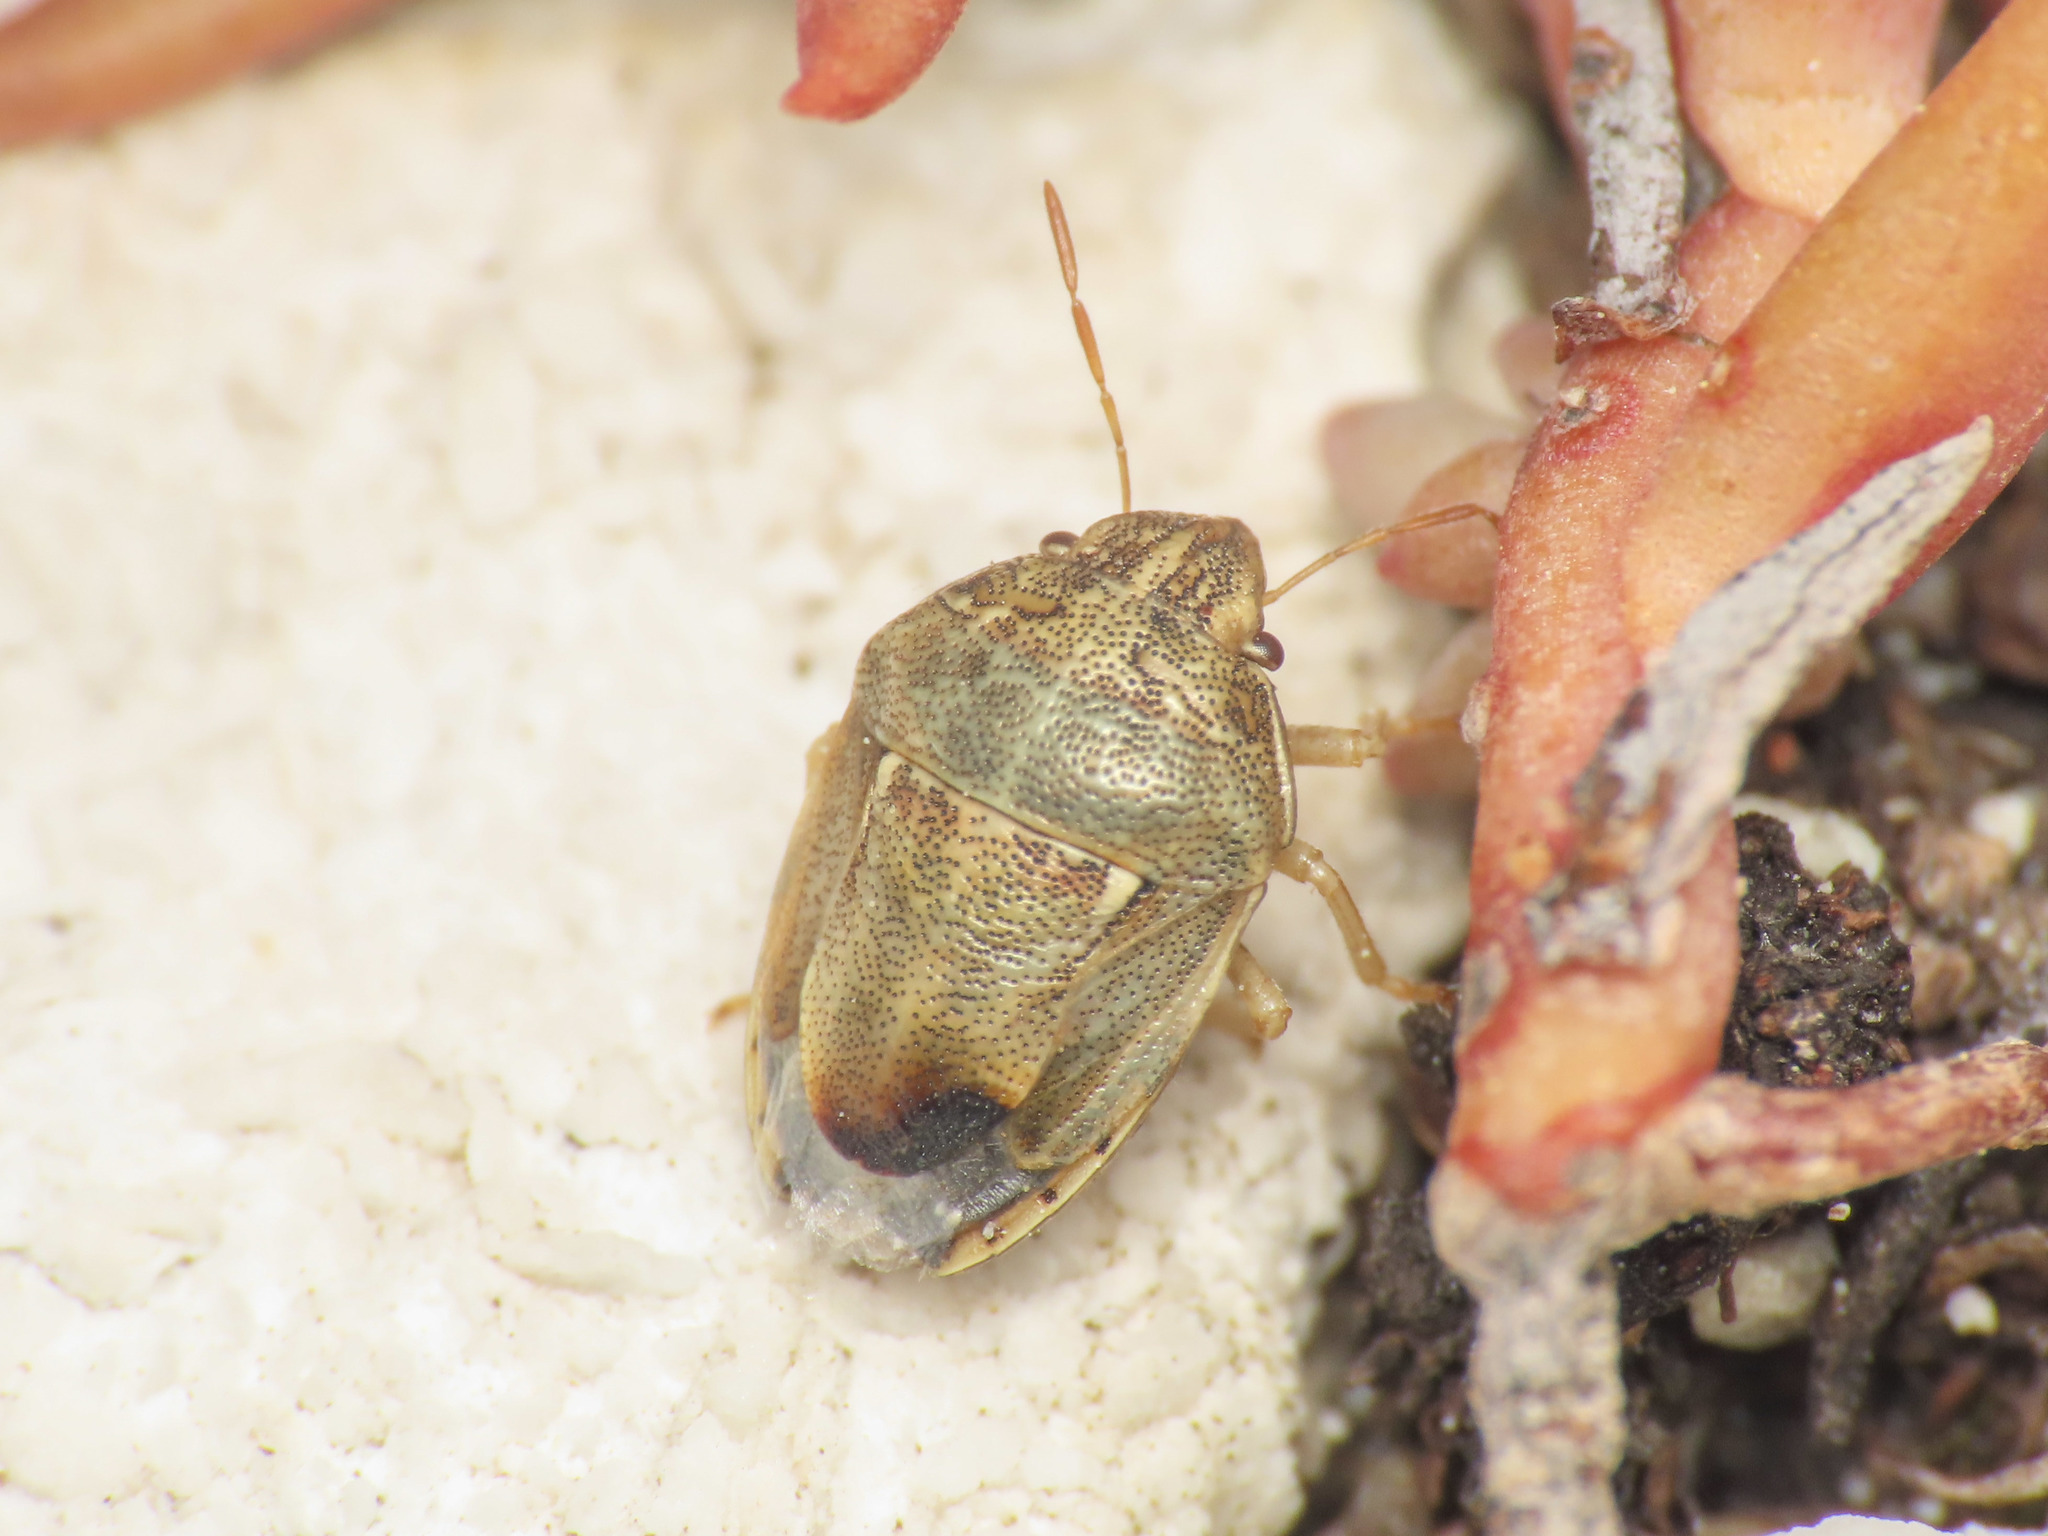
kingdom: Animalia
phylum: Arthropoda
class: Insecta
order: Hemiptera
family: Pentatomidae
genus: Neottiglossa
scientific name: Neottiglossa leporina
